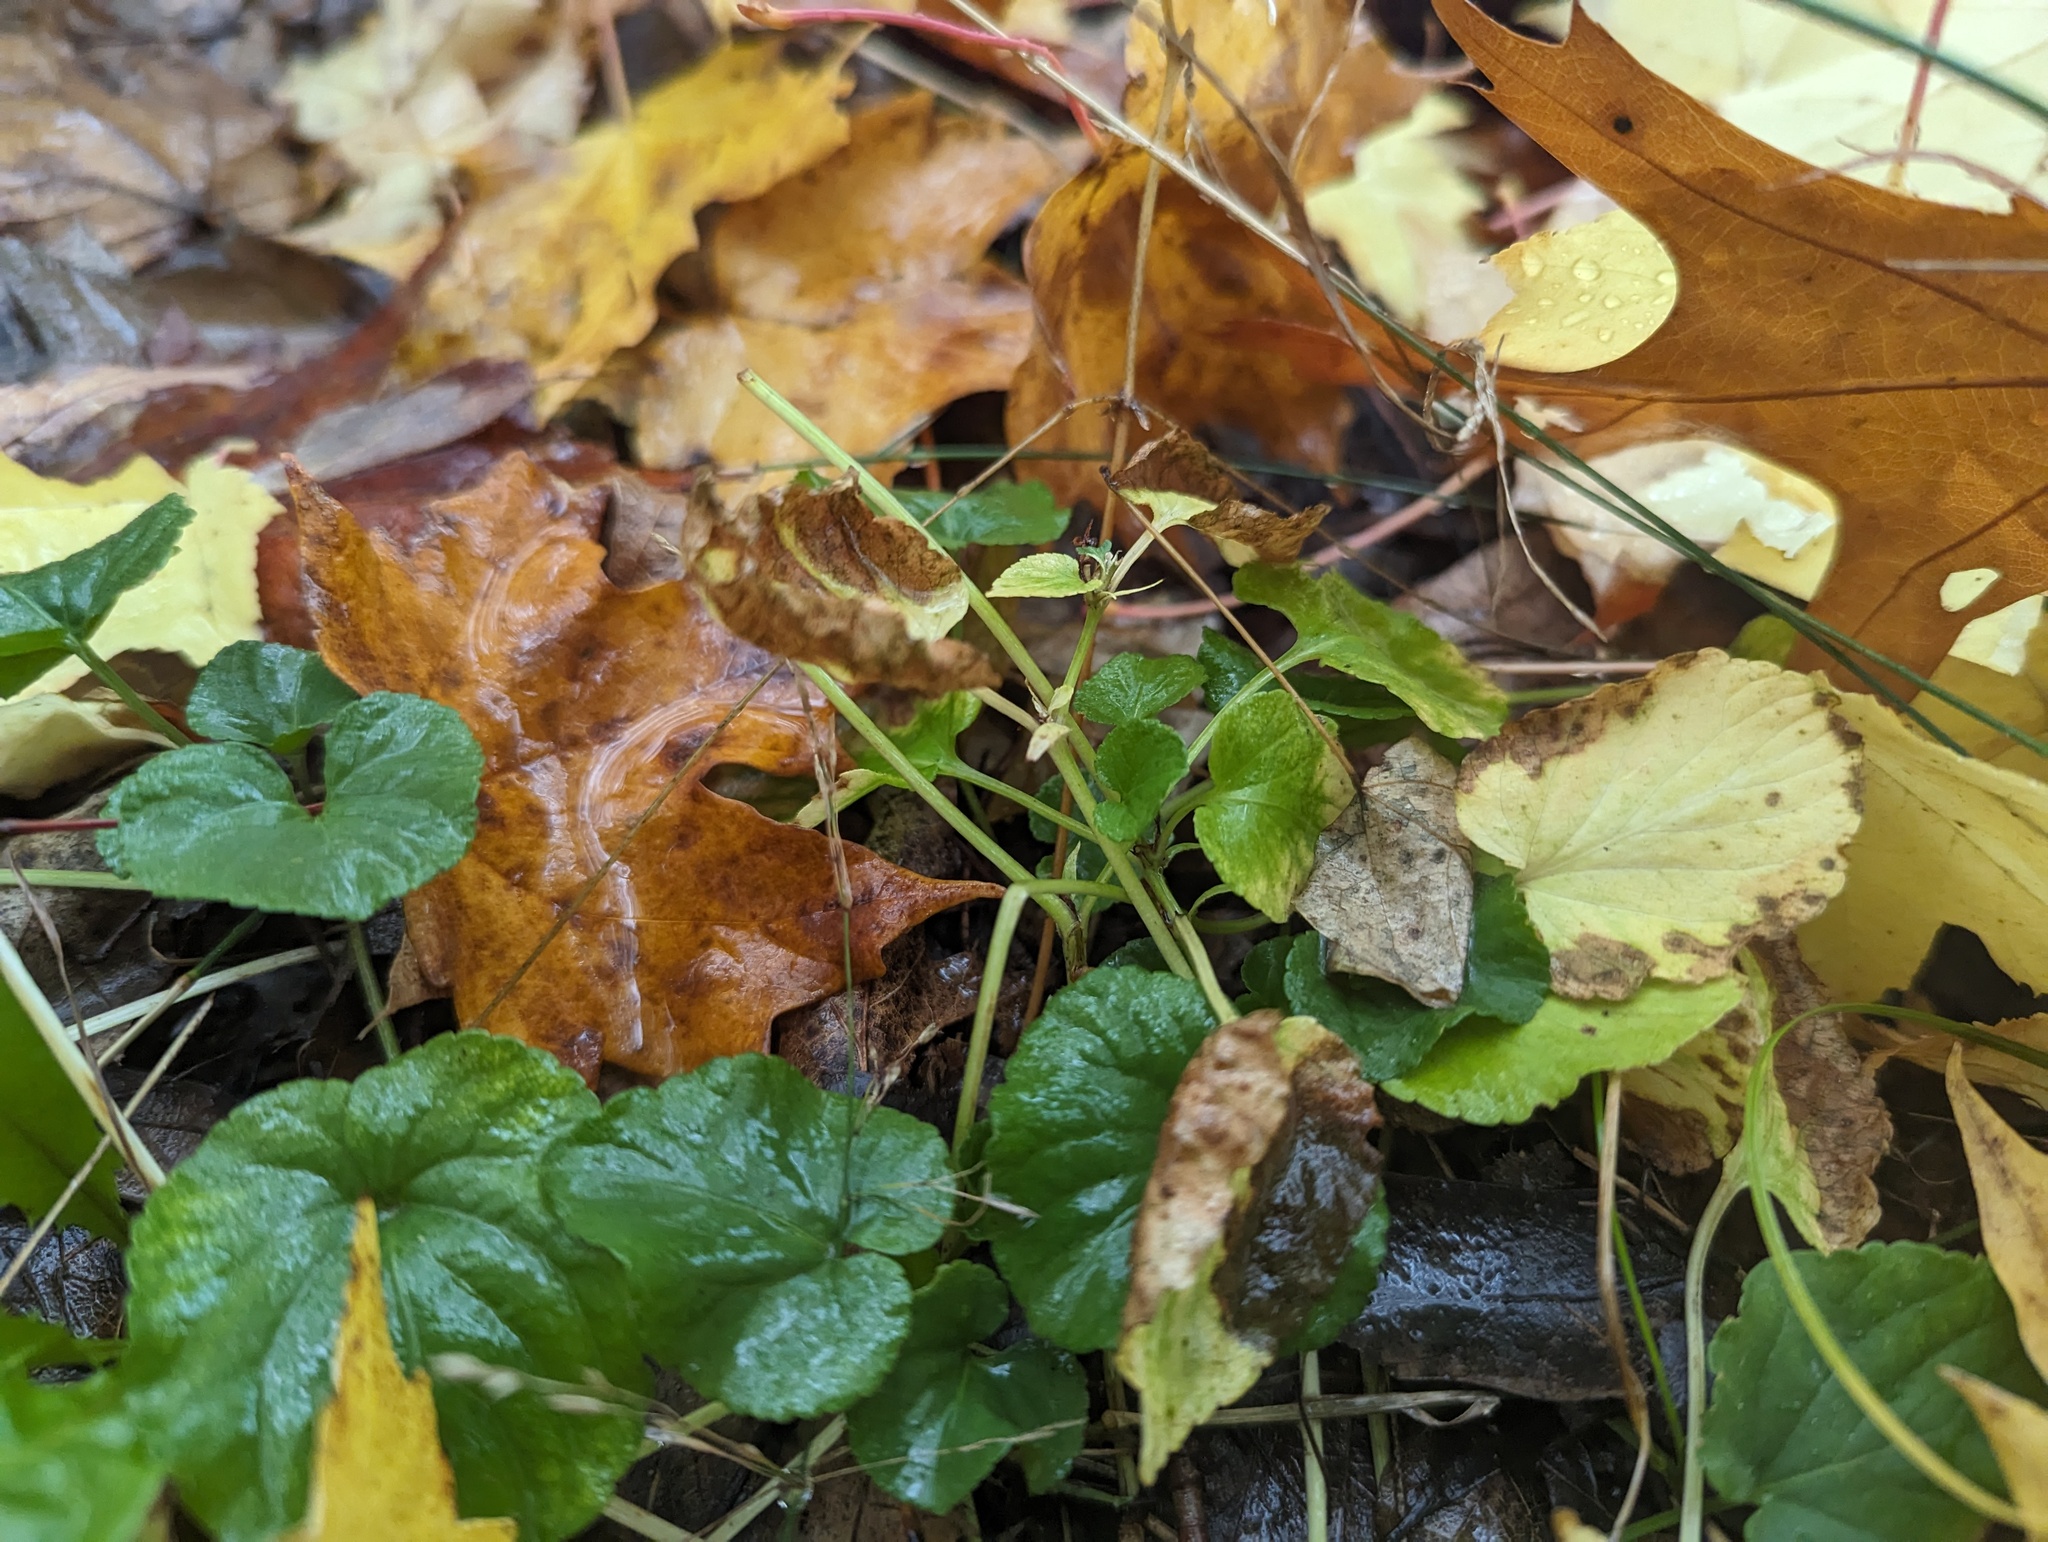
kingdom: Plantae
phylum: Tracheophyta
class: Magnoliopsida
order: Malpighiales
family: Violaceae
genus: Viola
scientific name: Viola striata
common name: Cream violet
